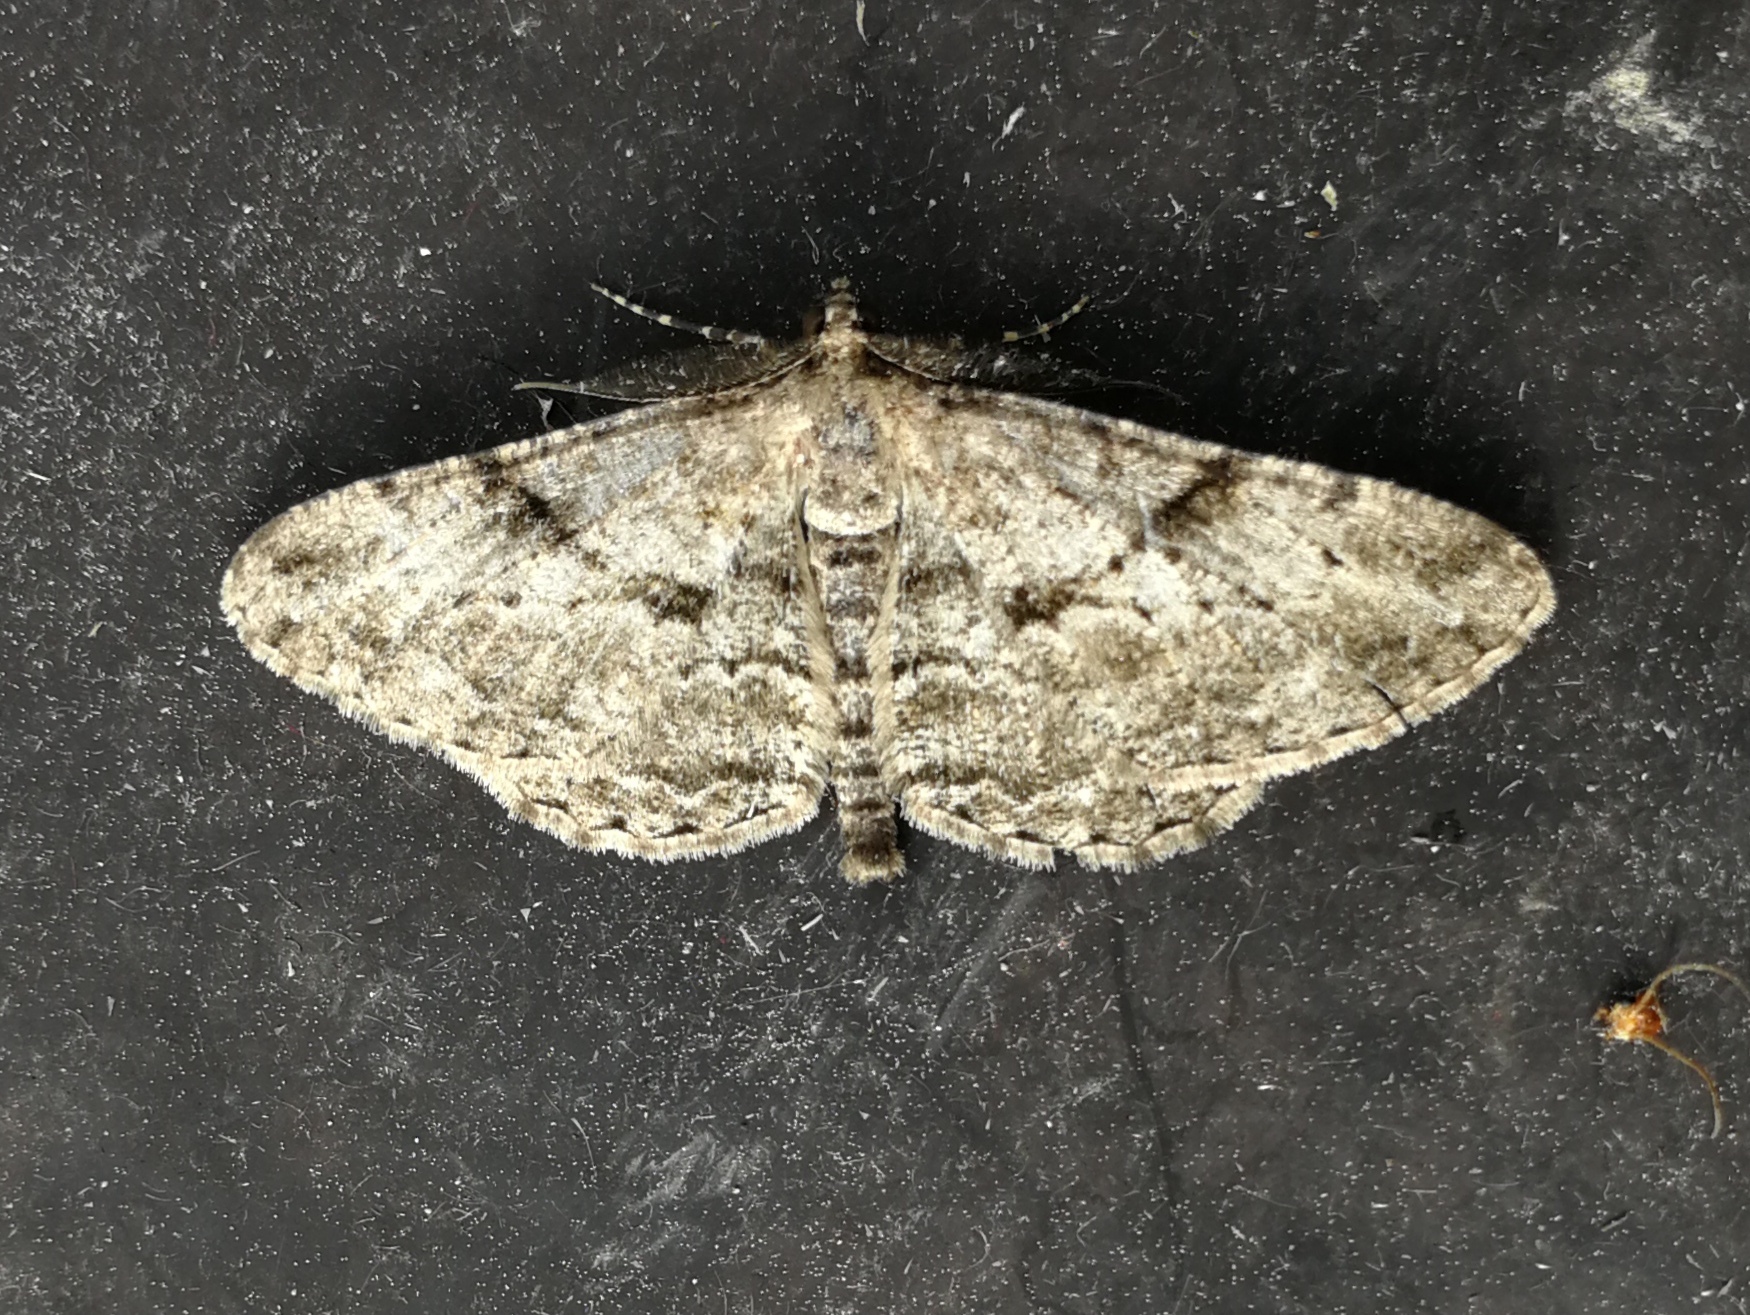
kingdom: Animalia
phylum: Arthropoda
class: Insecta
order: Lepidoptera
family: Geometridae
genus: Peribatodes
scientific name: Peribatodes rhomboidaria
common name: Willow beauty
